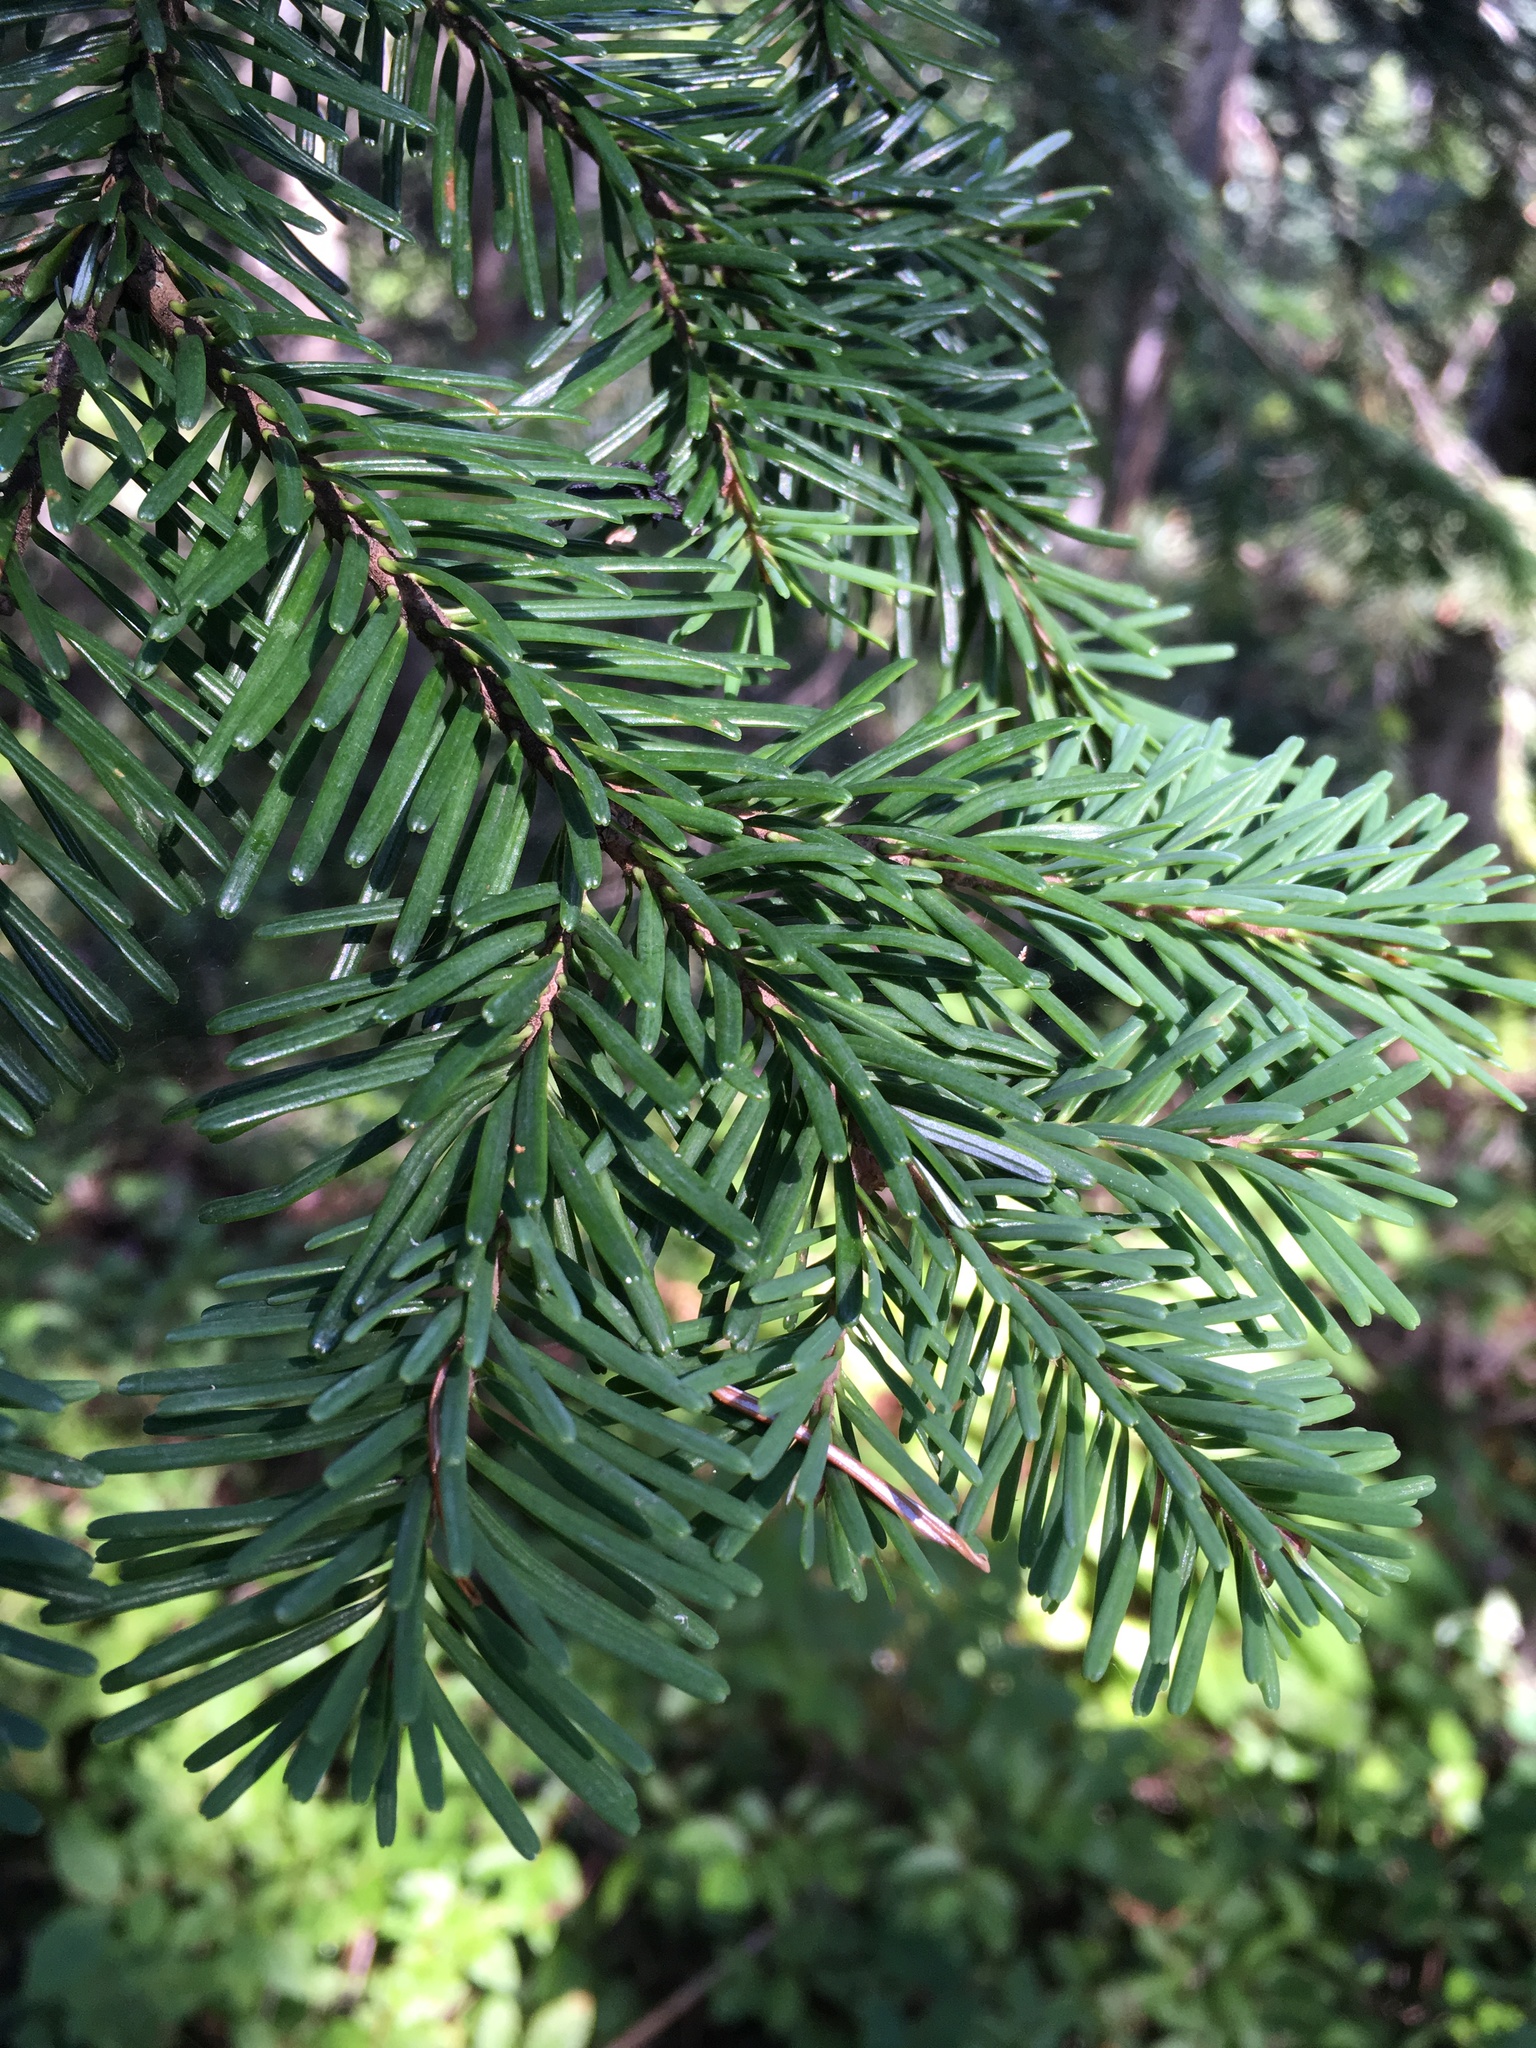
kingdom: Plantae
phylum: Tracheophyta
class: Pinopsida
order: Pinales
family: Pinaceae
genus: Abies
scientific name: Abies amabilis
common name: Pacific silver fir
